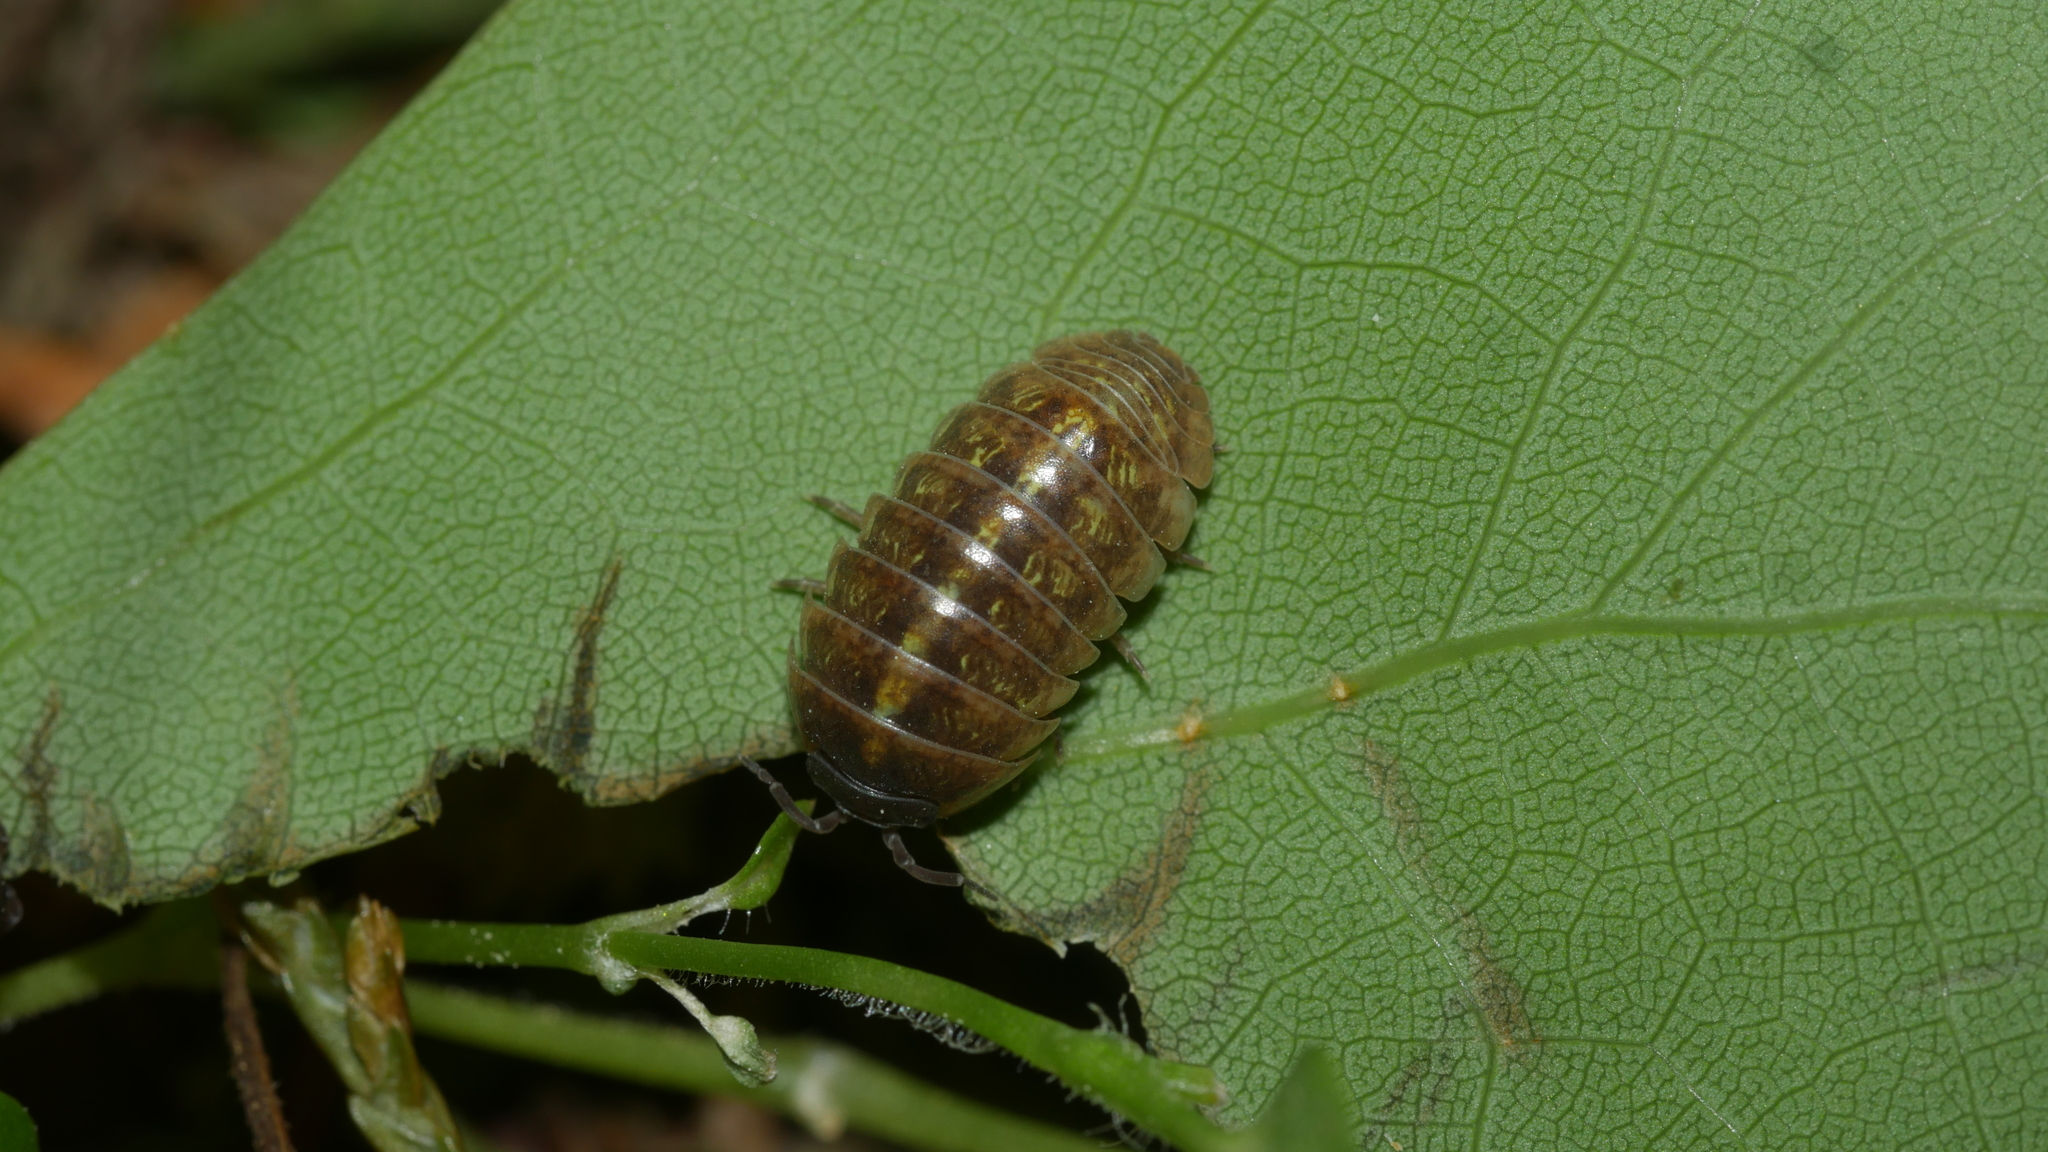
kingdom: Animalia
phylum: Arthropoda
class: Malacostraca
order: Isopoda
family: Armadillidiidae
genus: Armadillidium
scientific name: Armadillidium vulgare
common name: Common pill woodlouse
